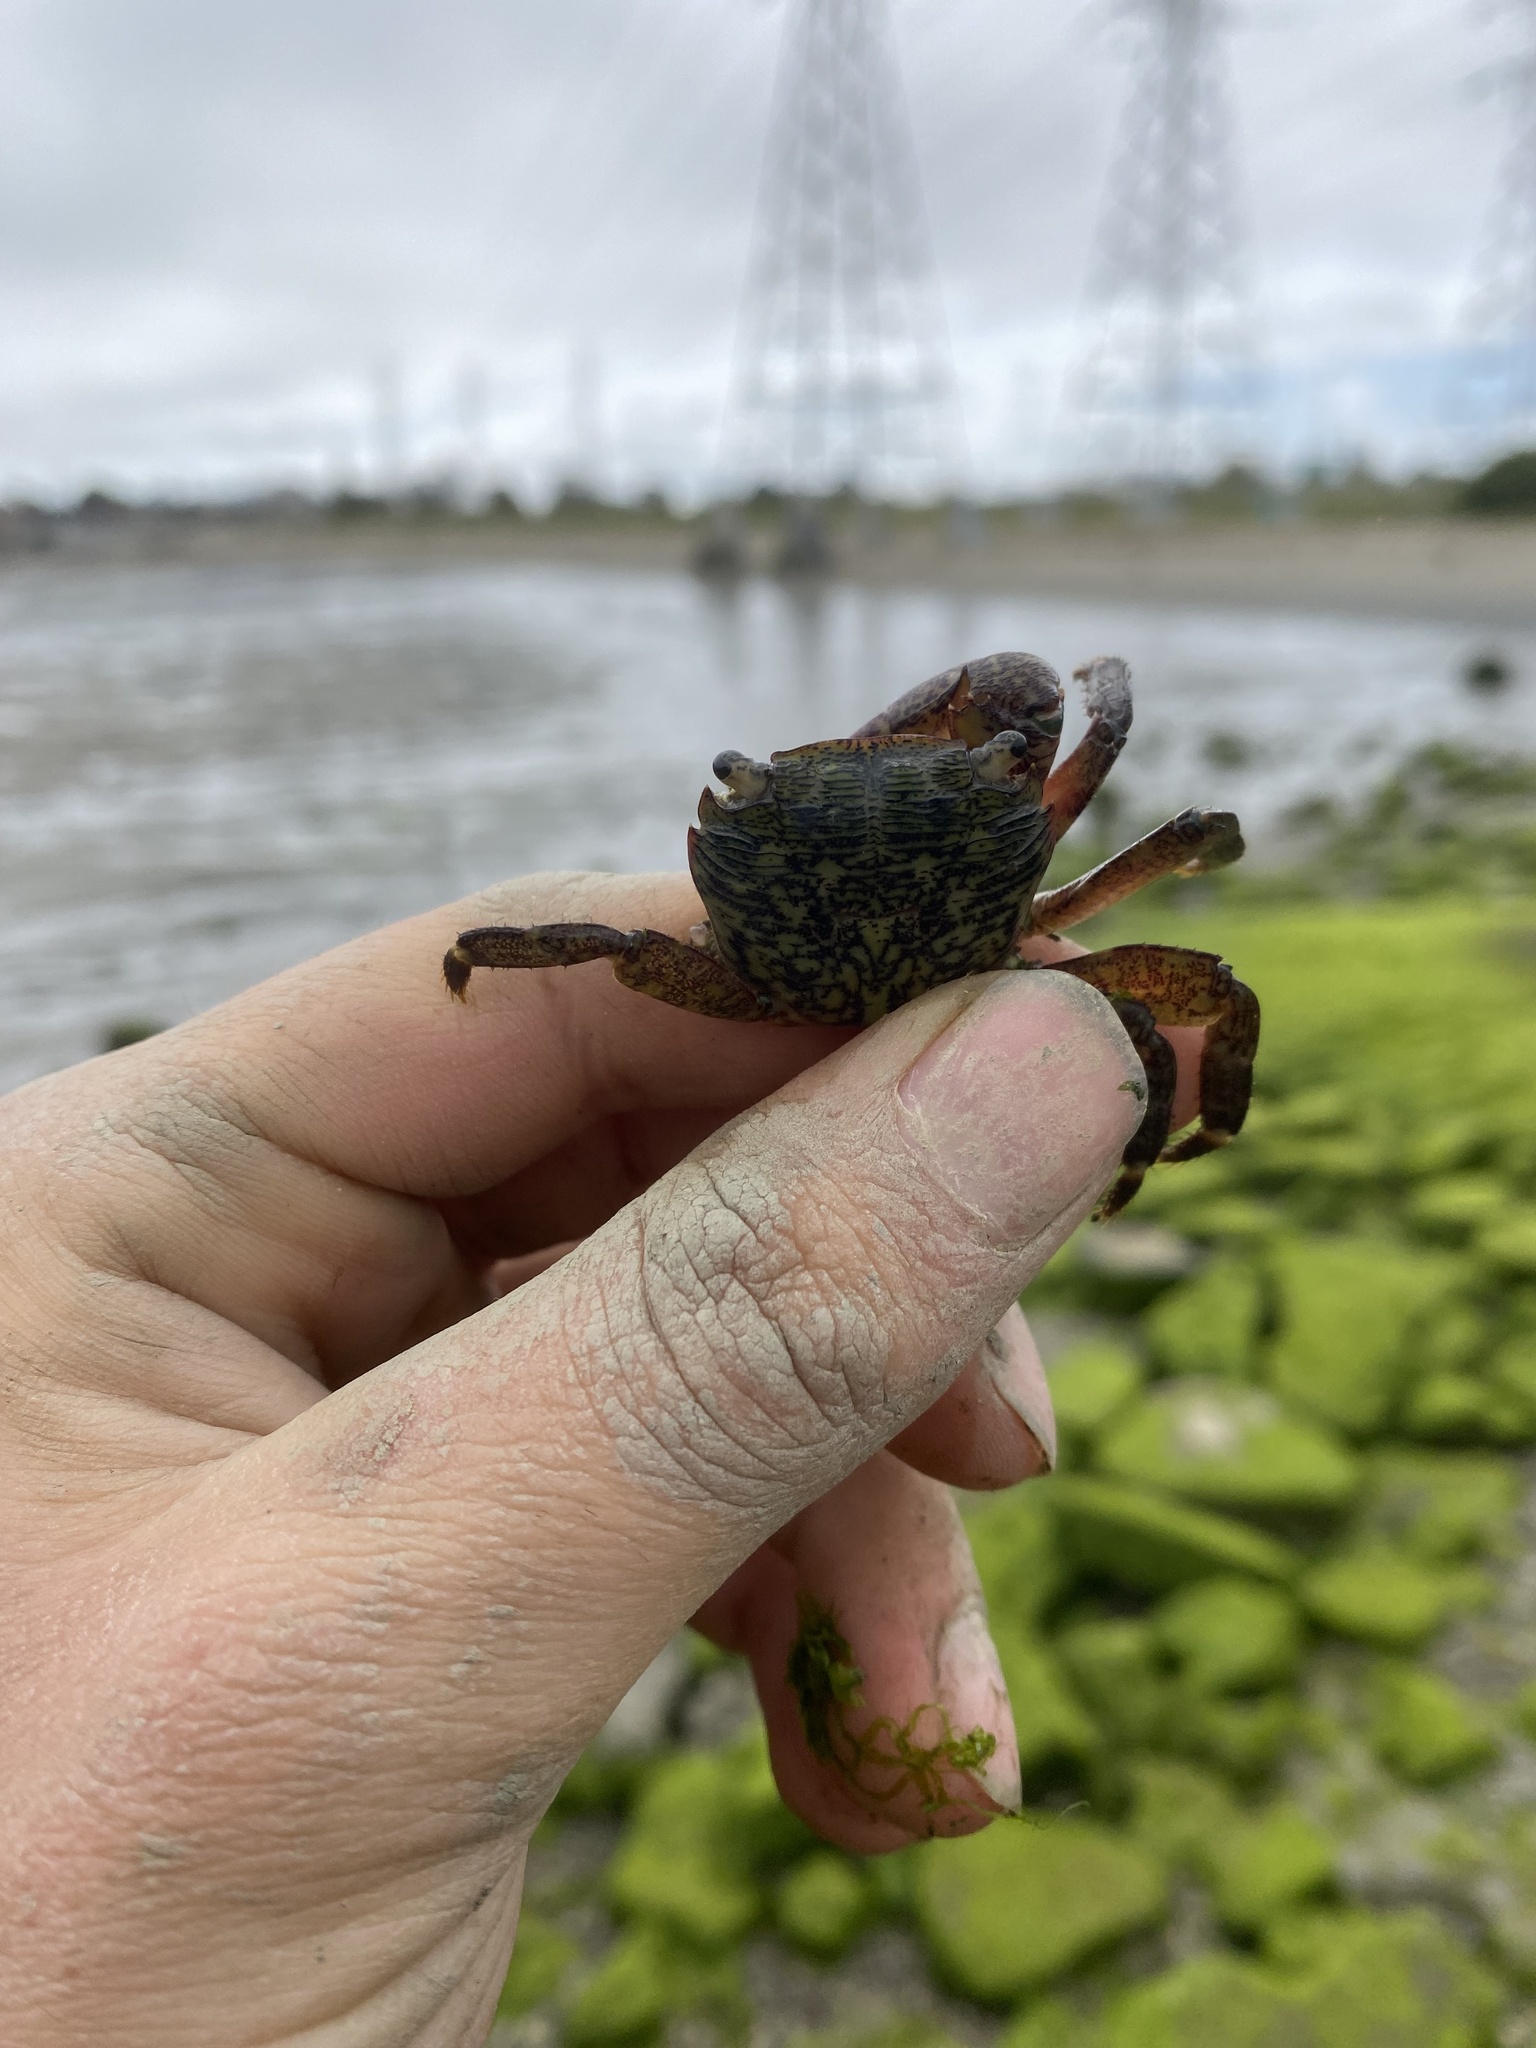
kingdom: Animalia
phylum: Arthropoda
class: Malacostraca
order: Decapoda
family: Grapsidae
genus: Pachygrapsus
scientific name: Pachygrapsus crassipes
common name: Striped shore crab
